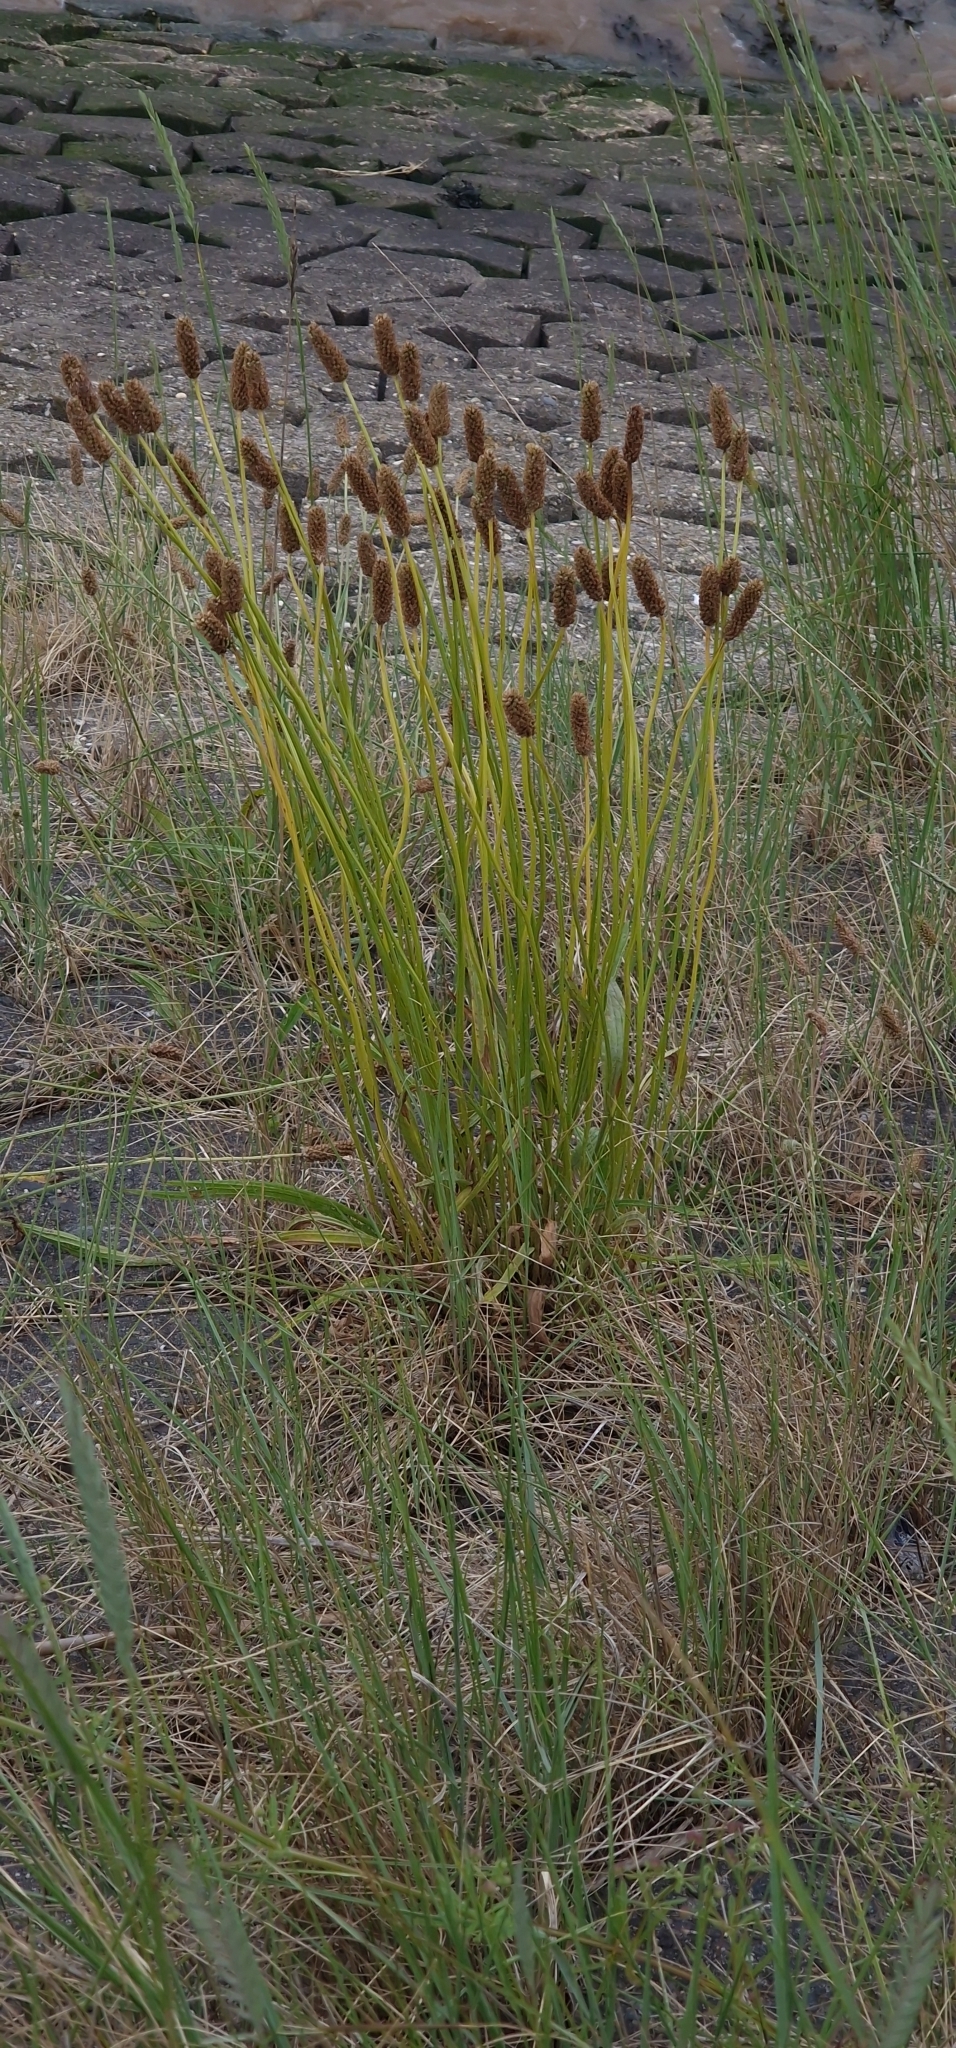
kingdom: Plantae
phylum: Tracheophyta
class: Magnoliopsida
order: Lamiales
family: Plantaginaceae
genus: Plantago
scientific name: Plantago lanceolata
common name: Ribwort plantain
